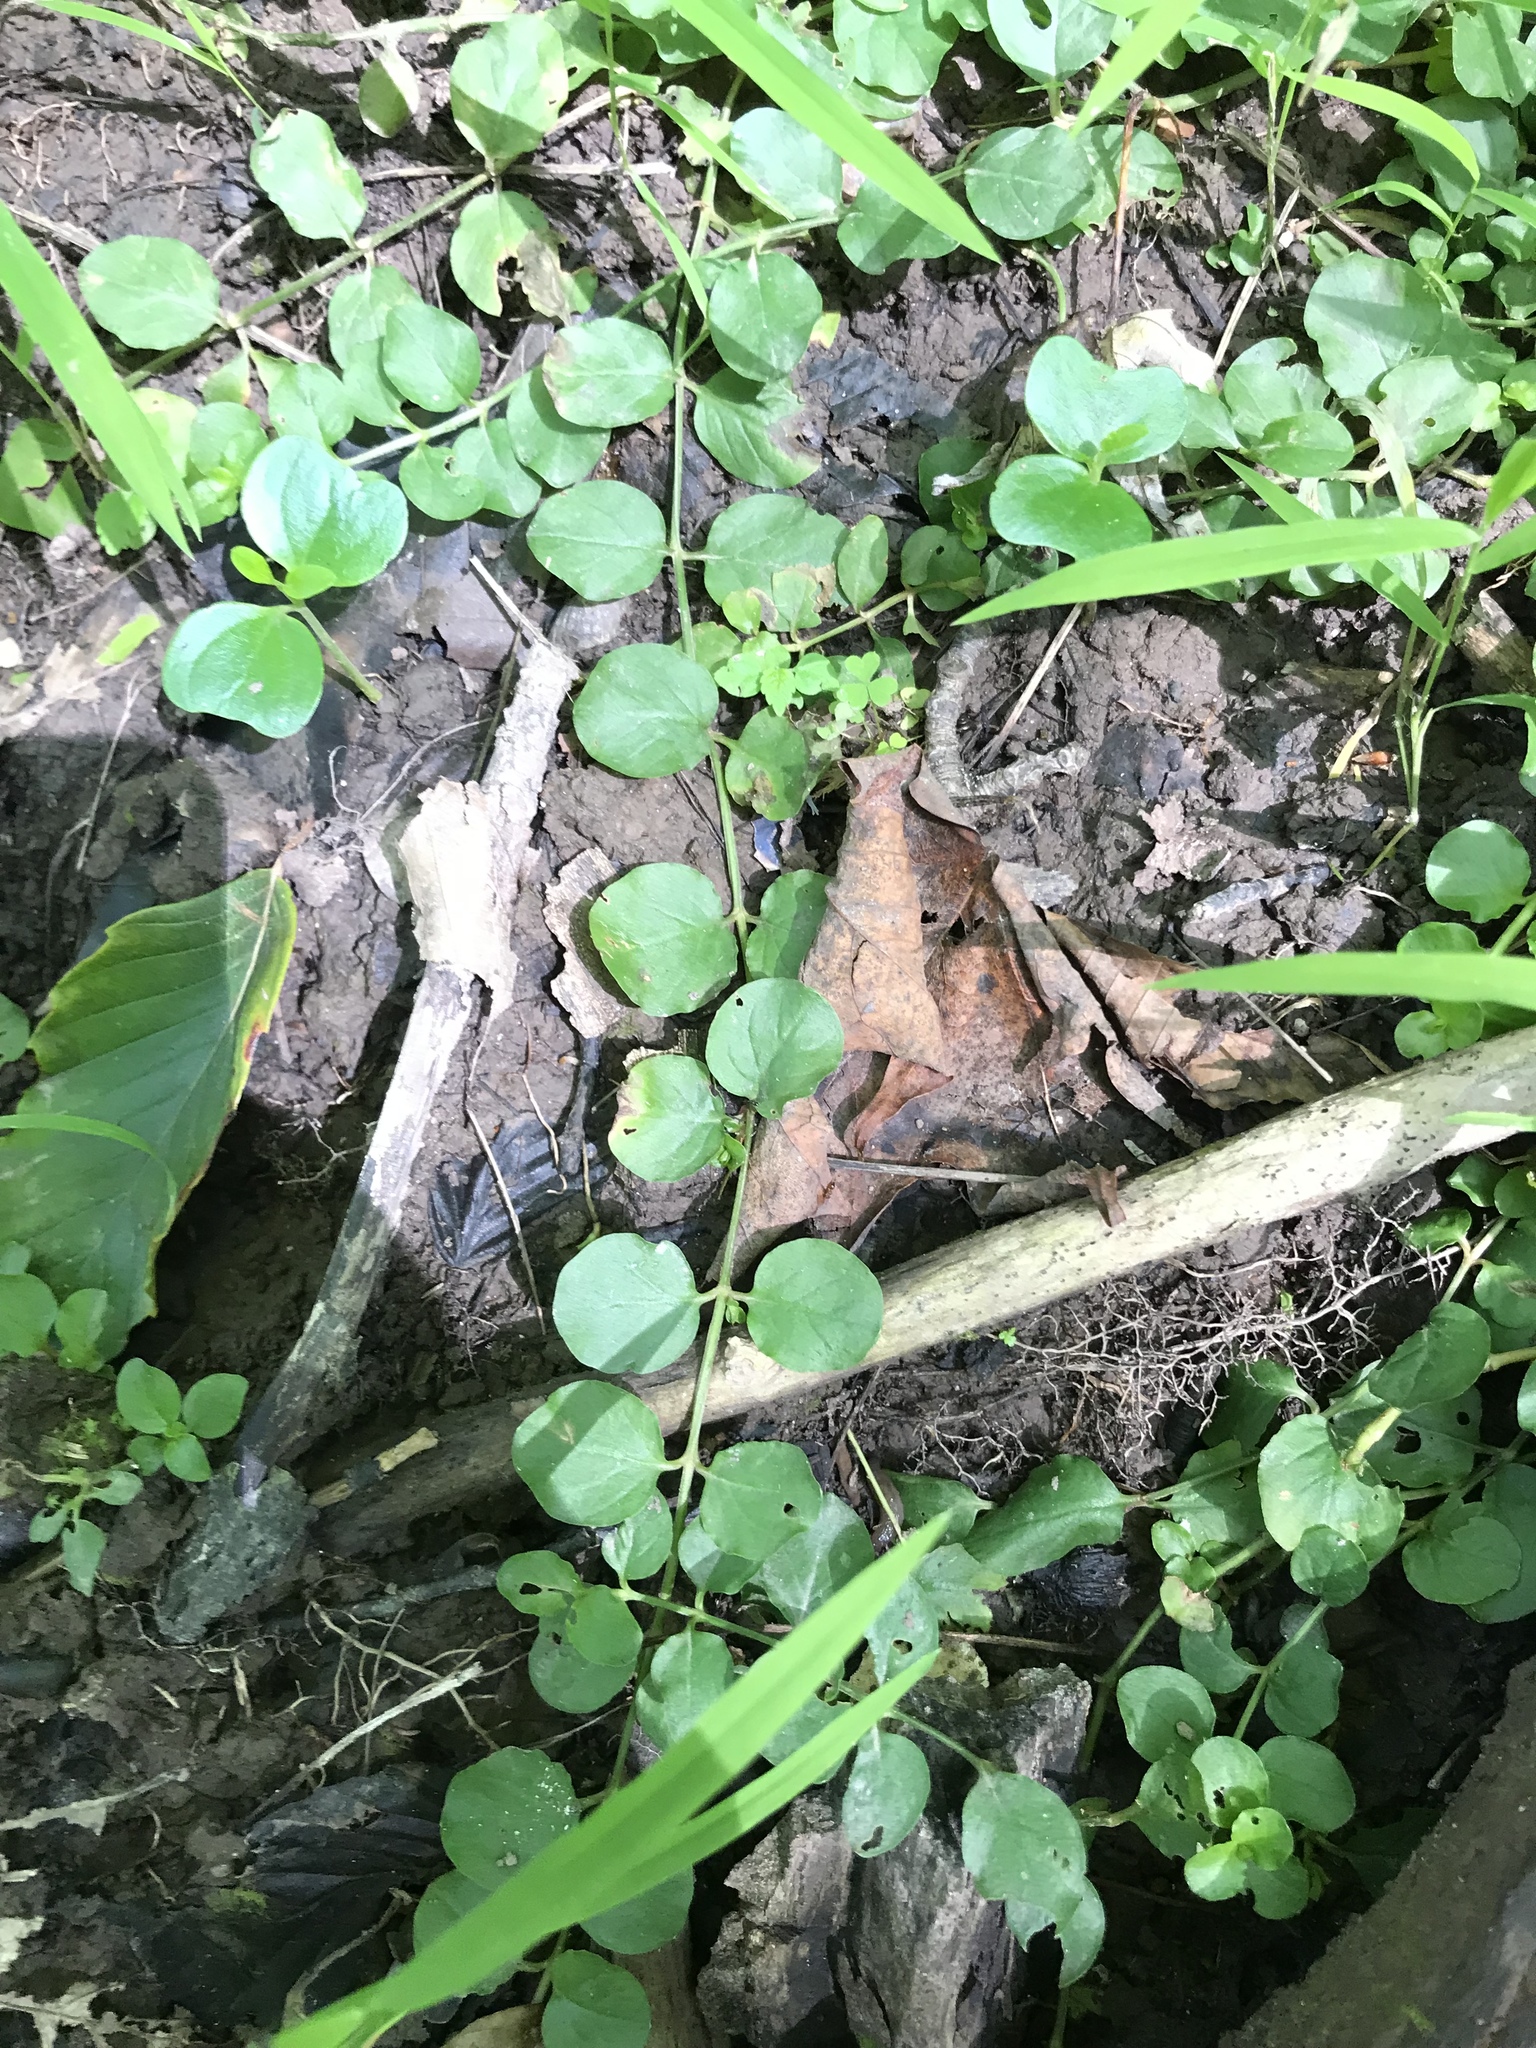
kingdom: Plantae
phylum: Tracheophyta
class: Magnoliopsida
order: Ericales
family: Primulaceae
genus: Lysimachia
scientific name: Lysimachia nummularia
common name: Moneywort
